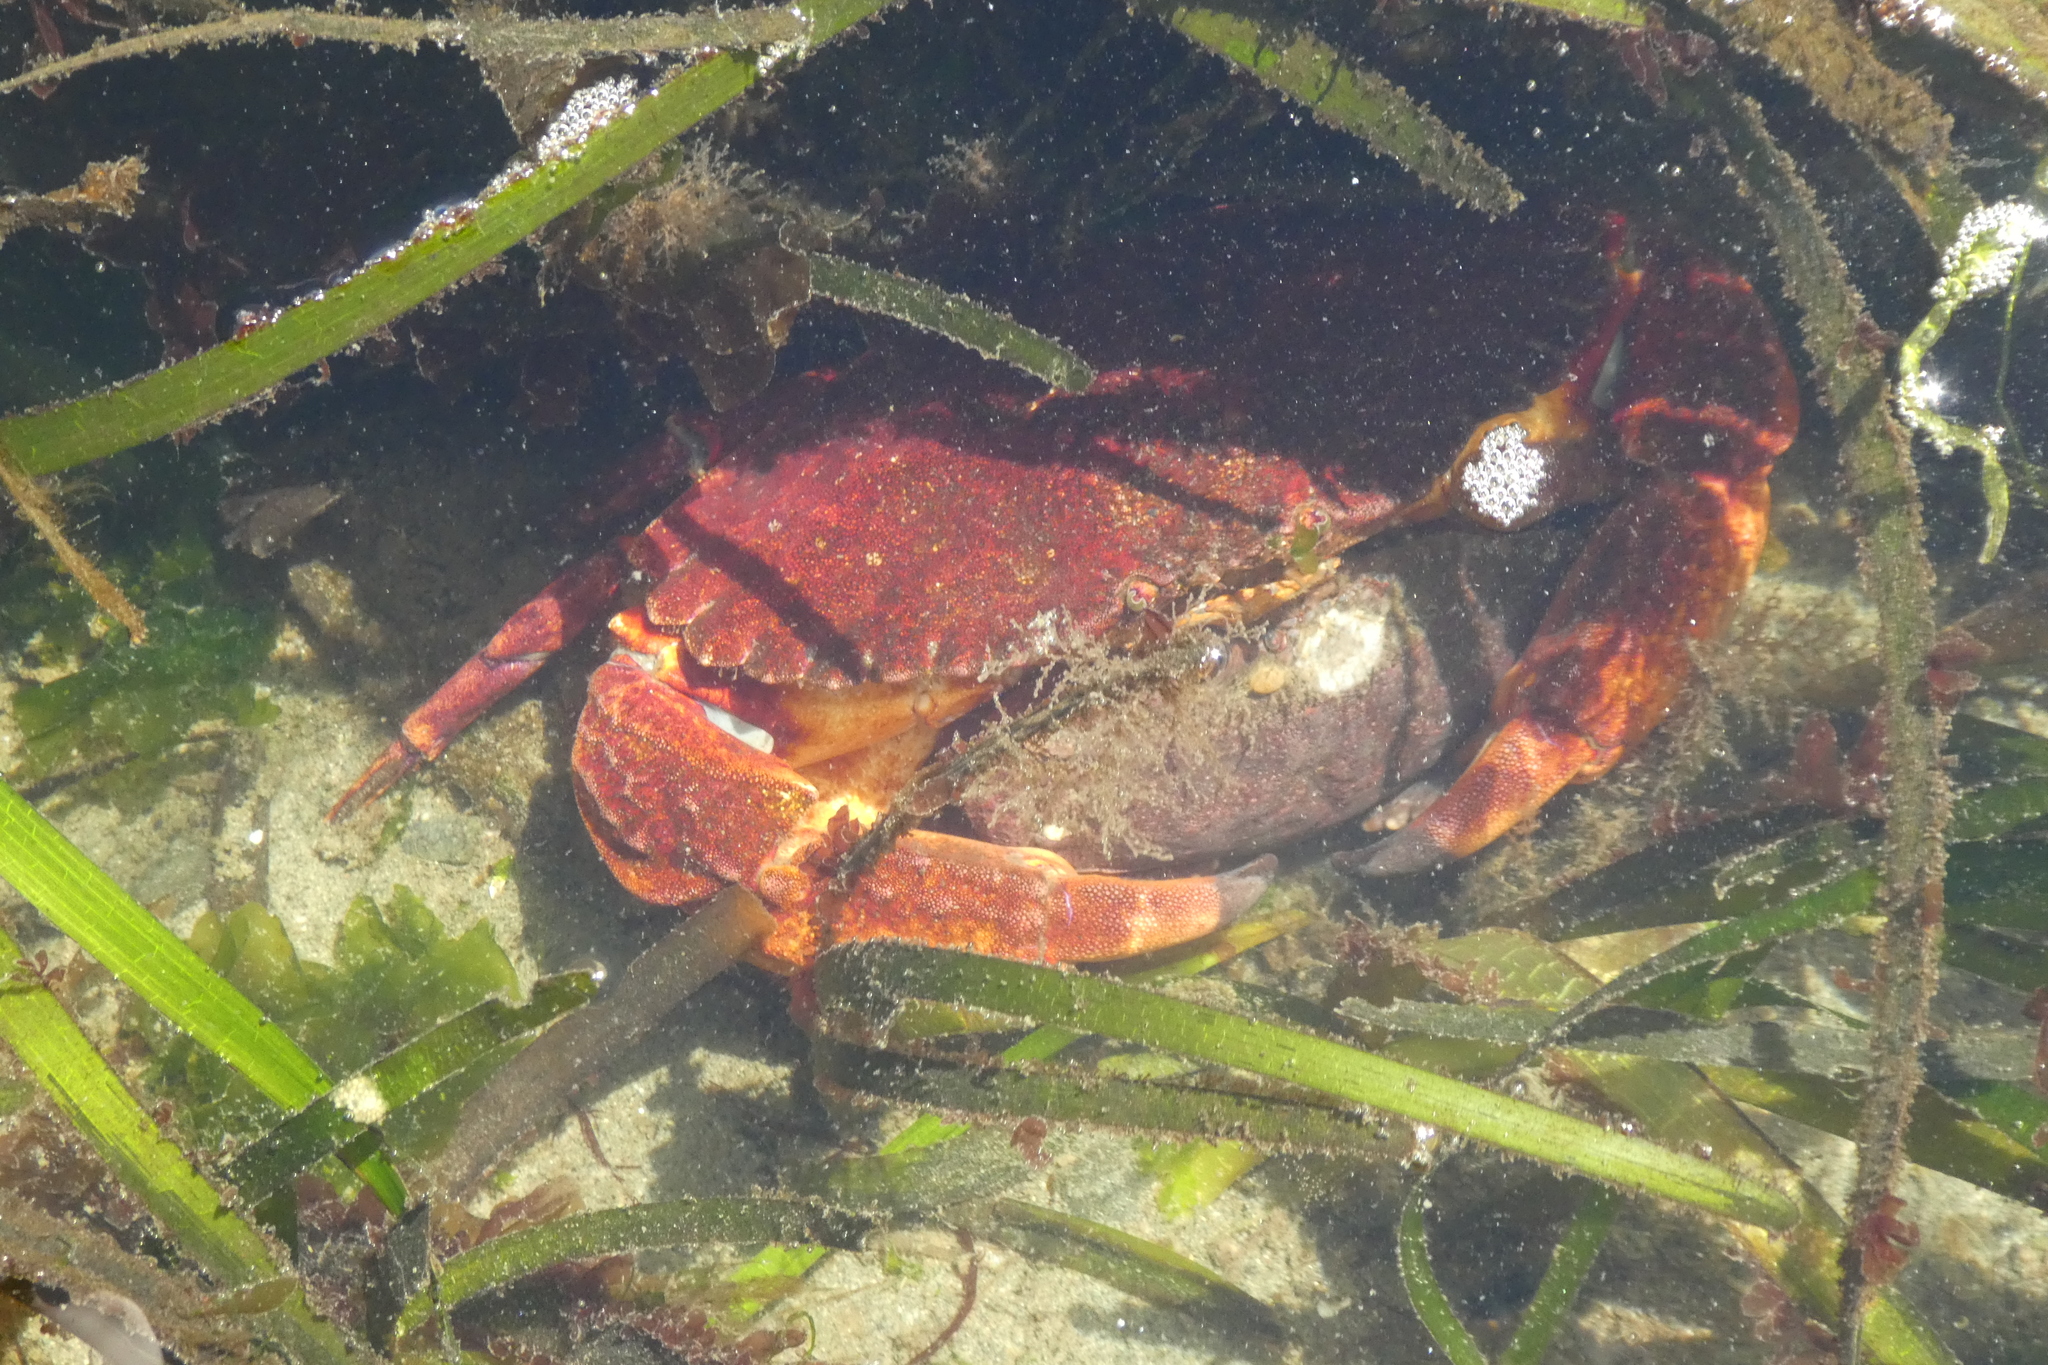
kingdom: Animalia
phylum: Arthropoda
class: Malacostraca
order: Decapoda
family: Cancridae
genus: Cancer
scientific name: Cancer productus
